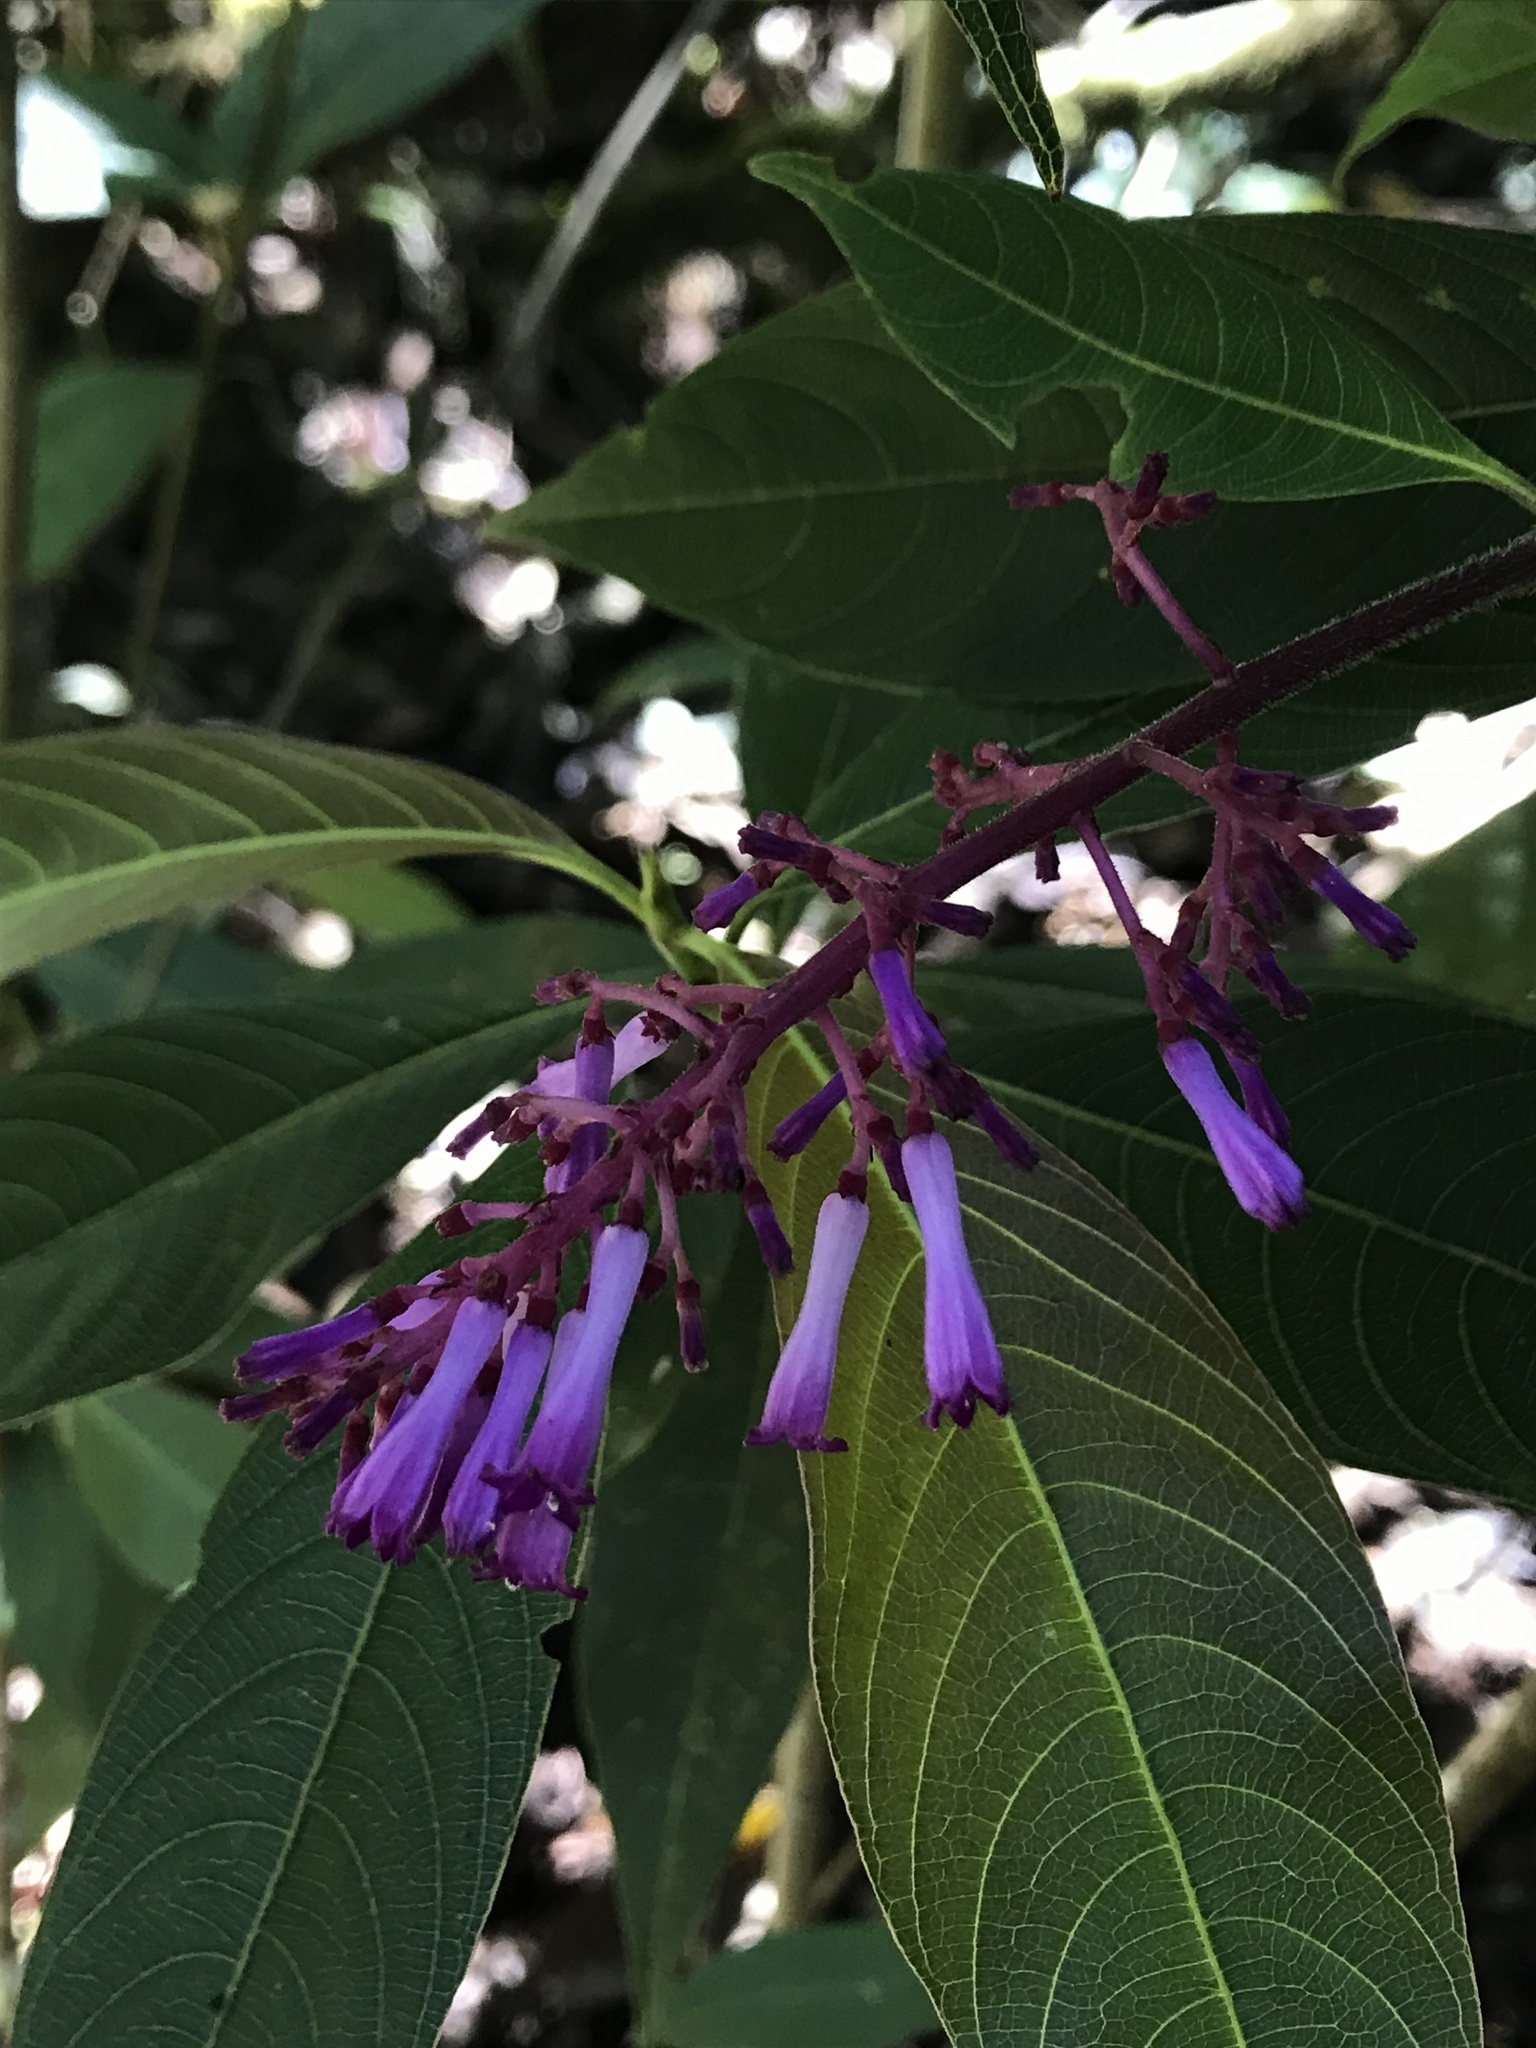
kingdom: Plantae
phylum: Tracheophyta
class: Magnoliopsida
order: Gentianales
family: Rubiaceae
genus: Palicourea
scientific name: Palicourea angustifolia
